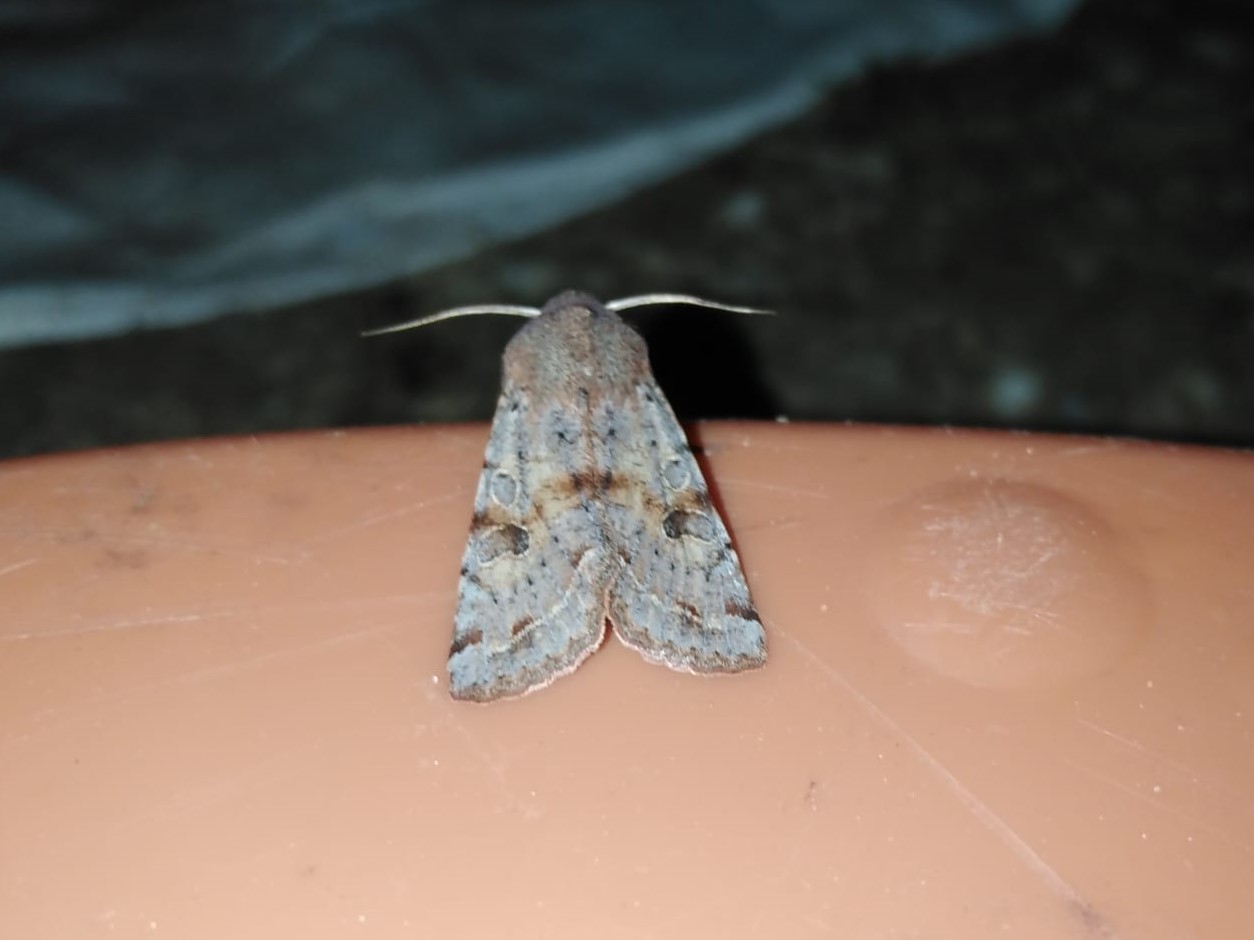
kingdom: Animalia
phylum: Arthropoda
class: Insecta
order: Lepidoptera
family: Noctuidae
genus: Orthosia
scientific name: Orthosia incerta
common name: Clouded drab
